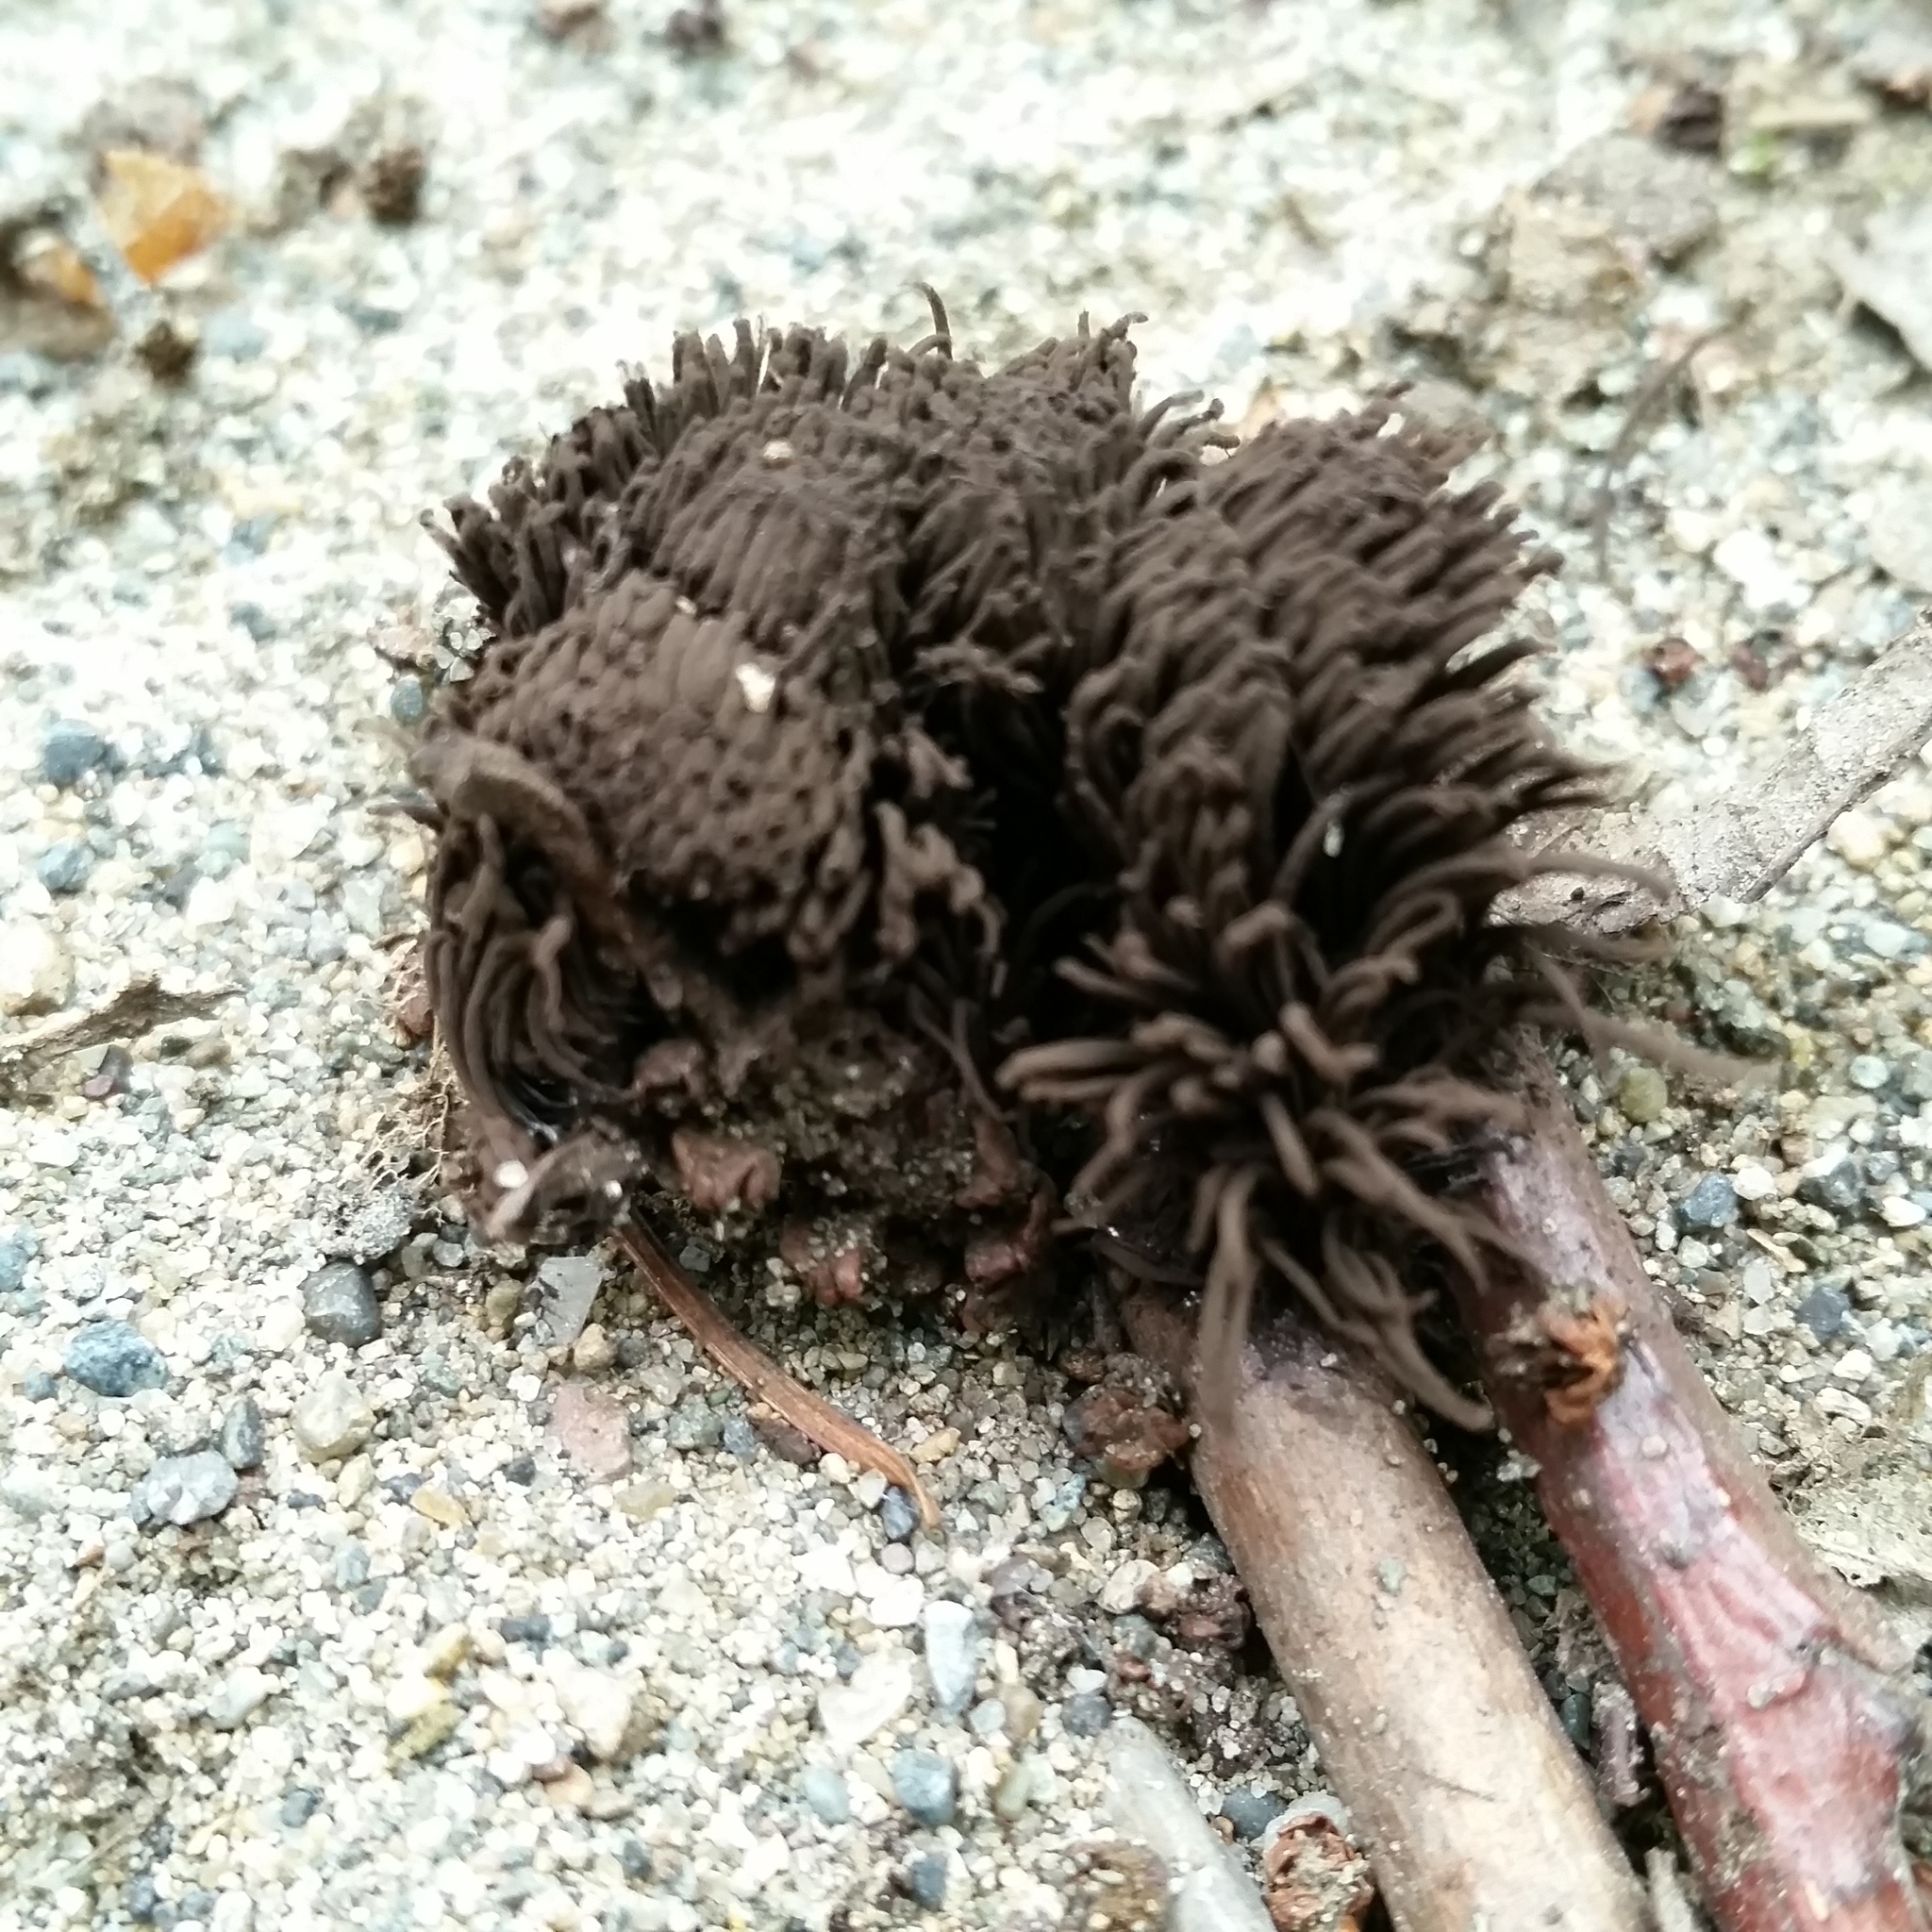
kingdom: Protozoa
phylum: Mycetozoa
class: Myxomycetes
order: Stemonitidales
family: Stemonitidaceae
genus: Stemonitis
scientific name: Stemonitis splendens
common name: Chocolate tube slime
